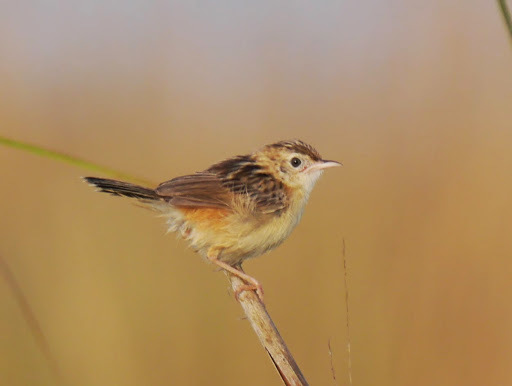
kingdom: Animalia
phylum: Chordata
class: Aves
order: Passeriformes
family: Cisticolidae
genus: Cisticola
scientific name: Cisticola juncidis
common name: Zitting cisticola
